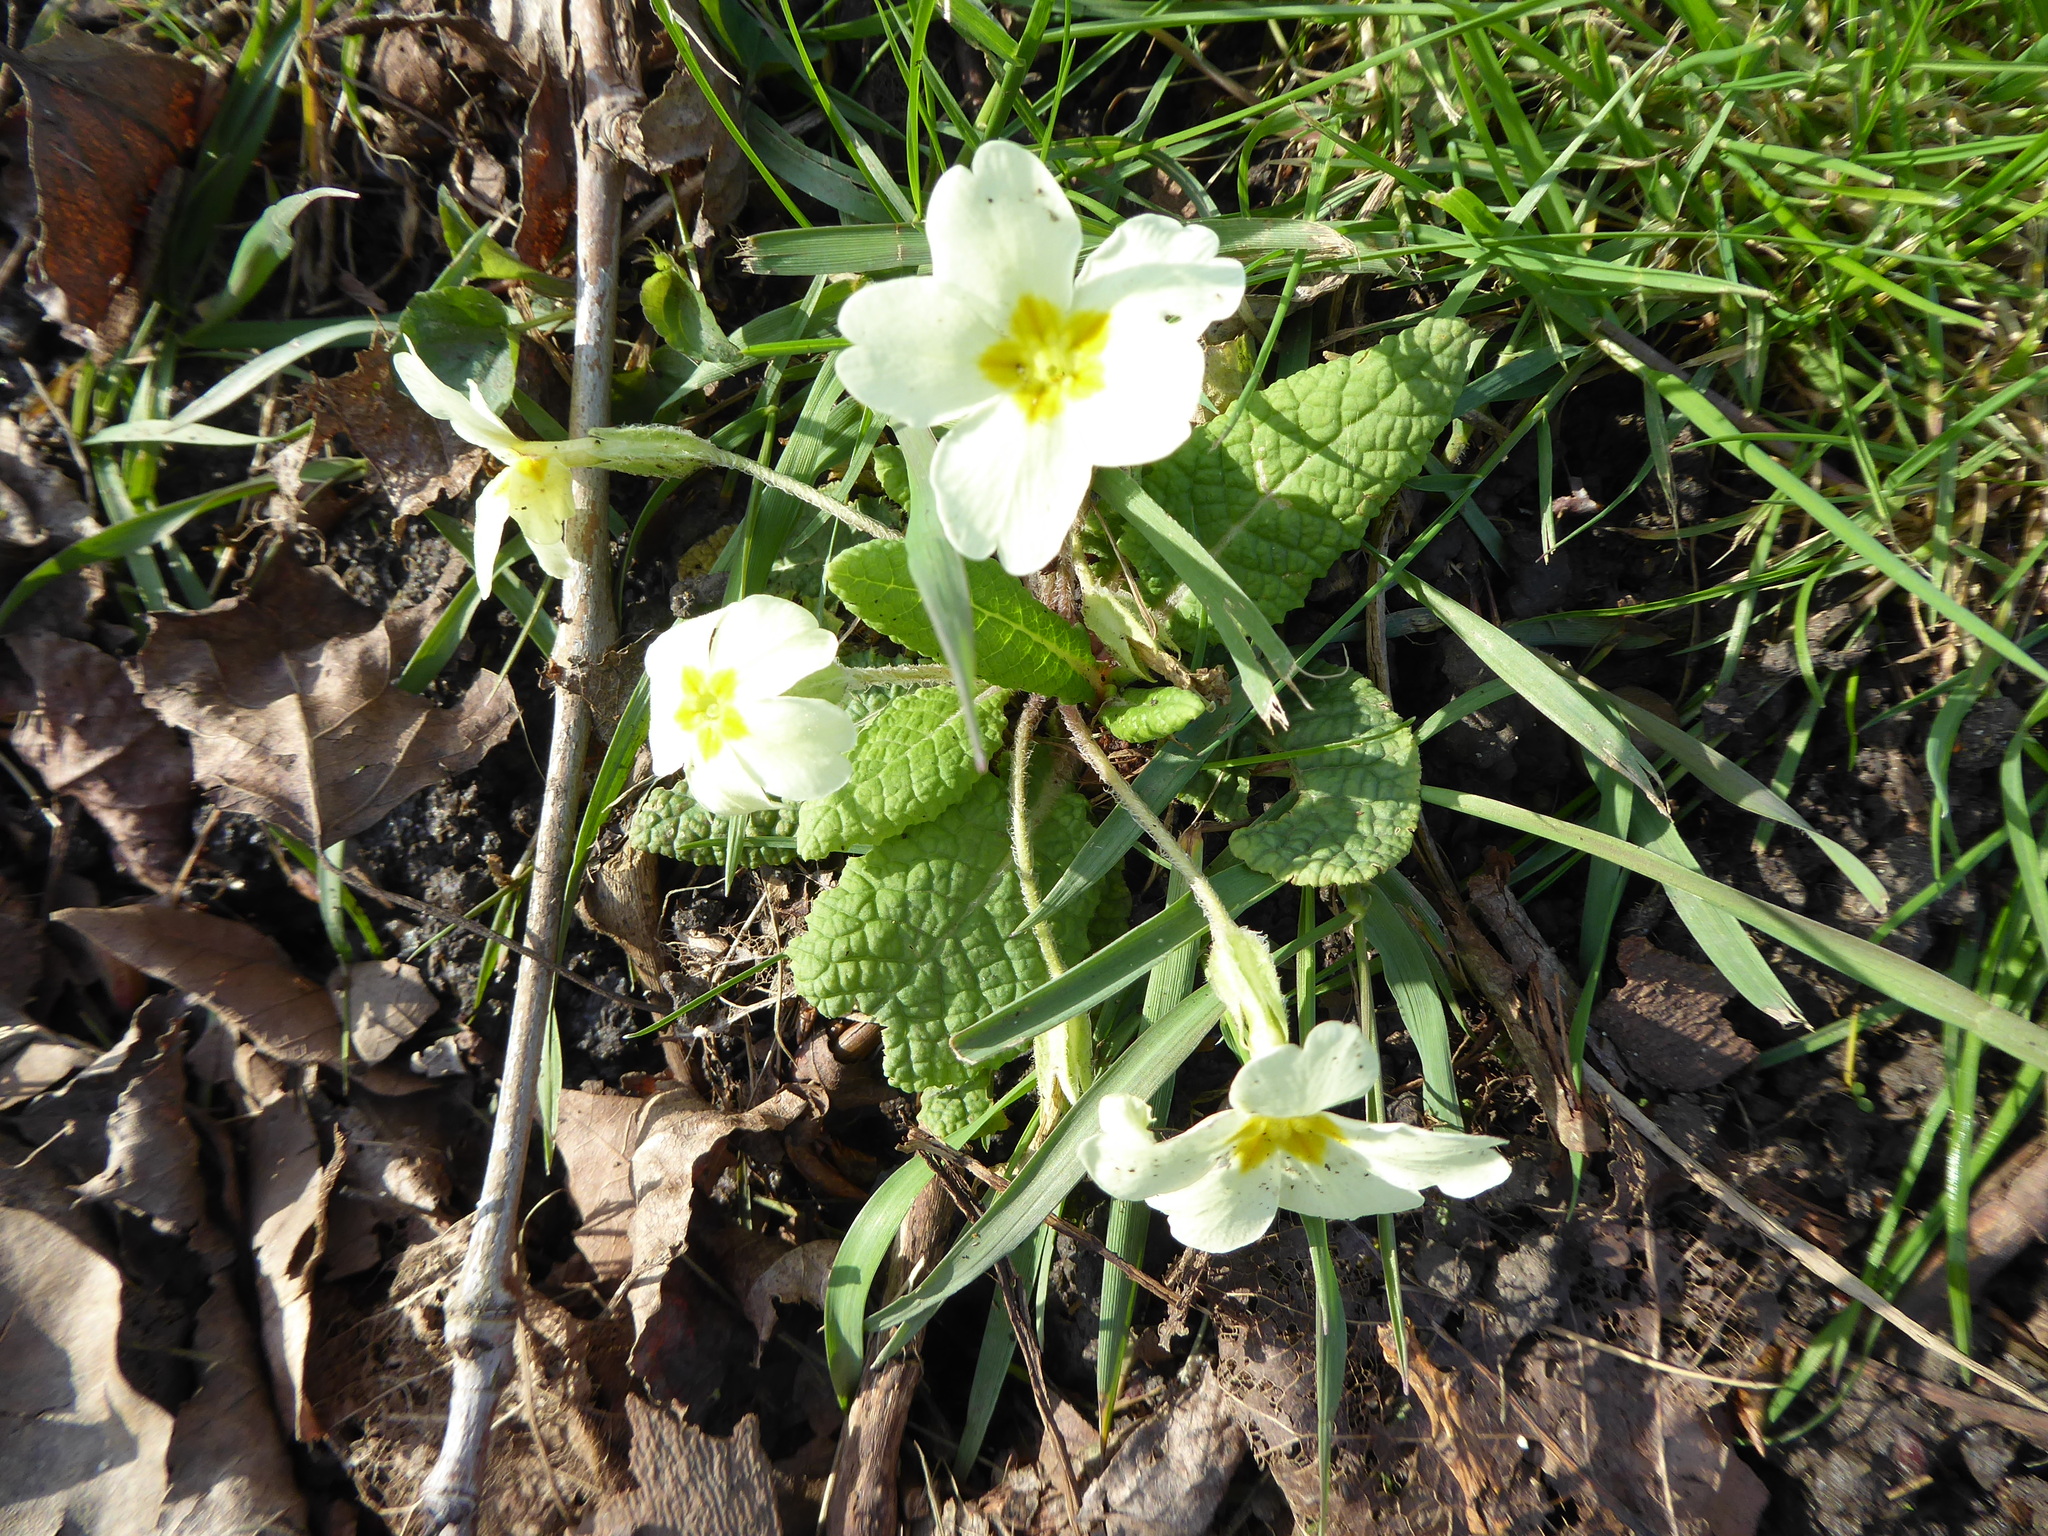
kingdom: Plantae
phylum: Tracheophyta
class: Magnoliopsida
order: Ericales
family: Primulaceae
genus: Primula
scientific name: Primula vulgaris
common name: Primrose
